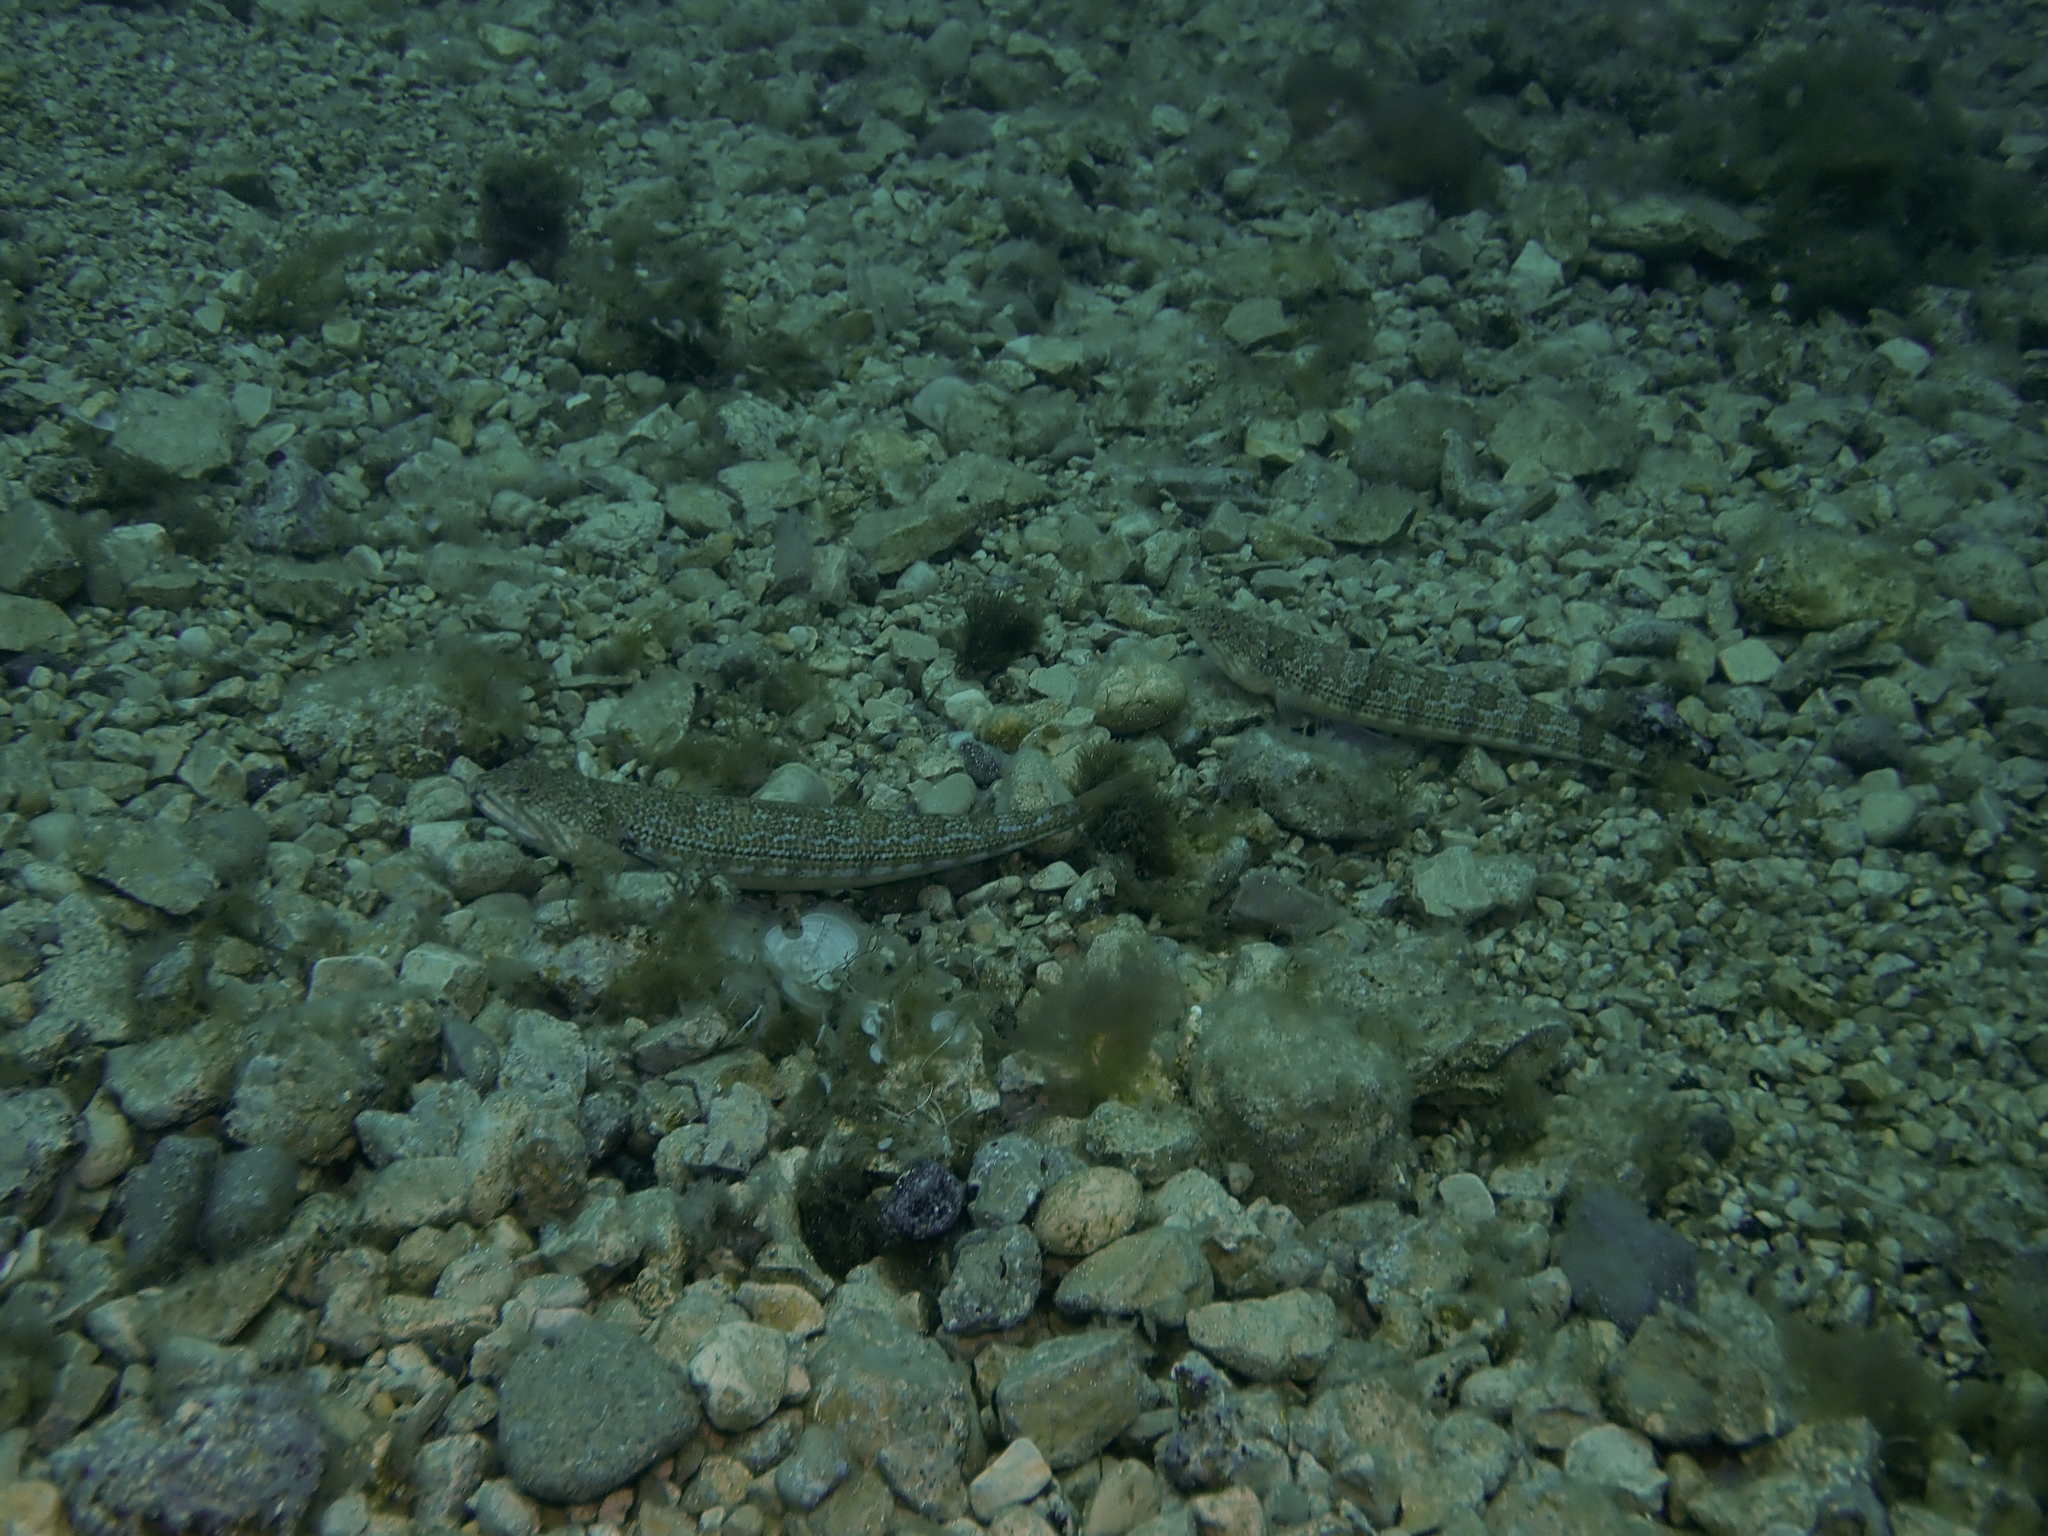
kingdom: Animalia
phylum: Chordata
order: Aulopiformes
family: Synodontidae
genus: Synodus
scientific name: Synodus saurus
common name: Atlantic lizardfish
